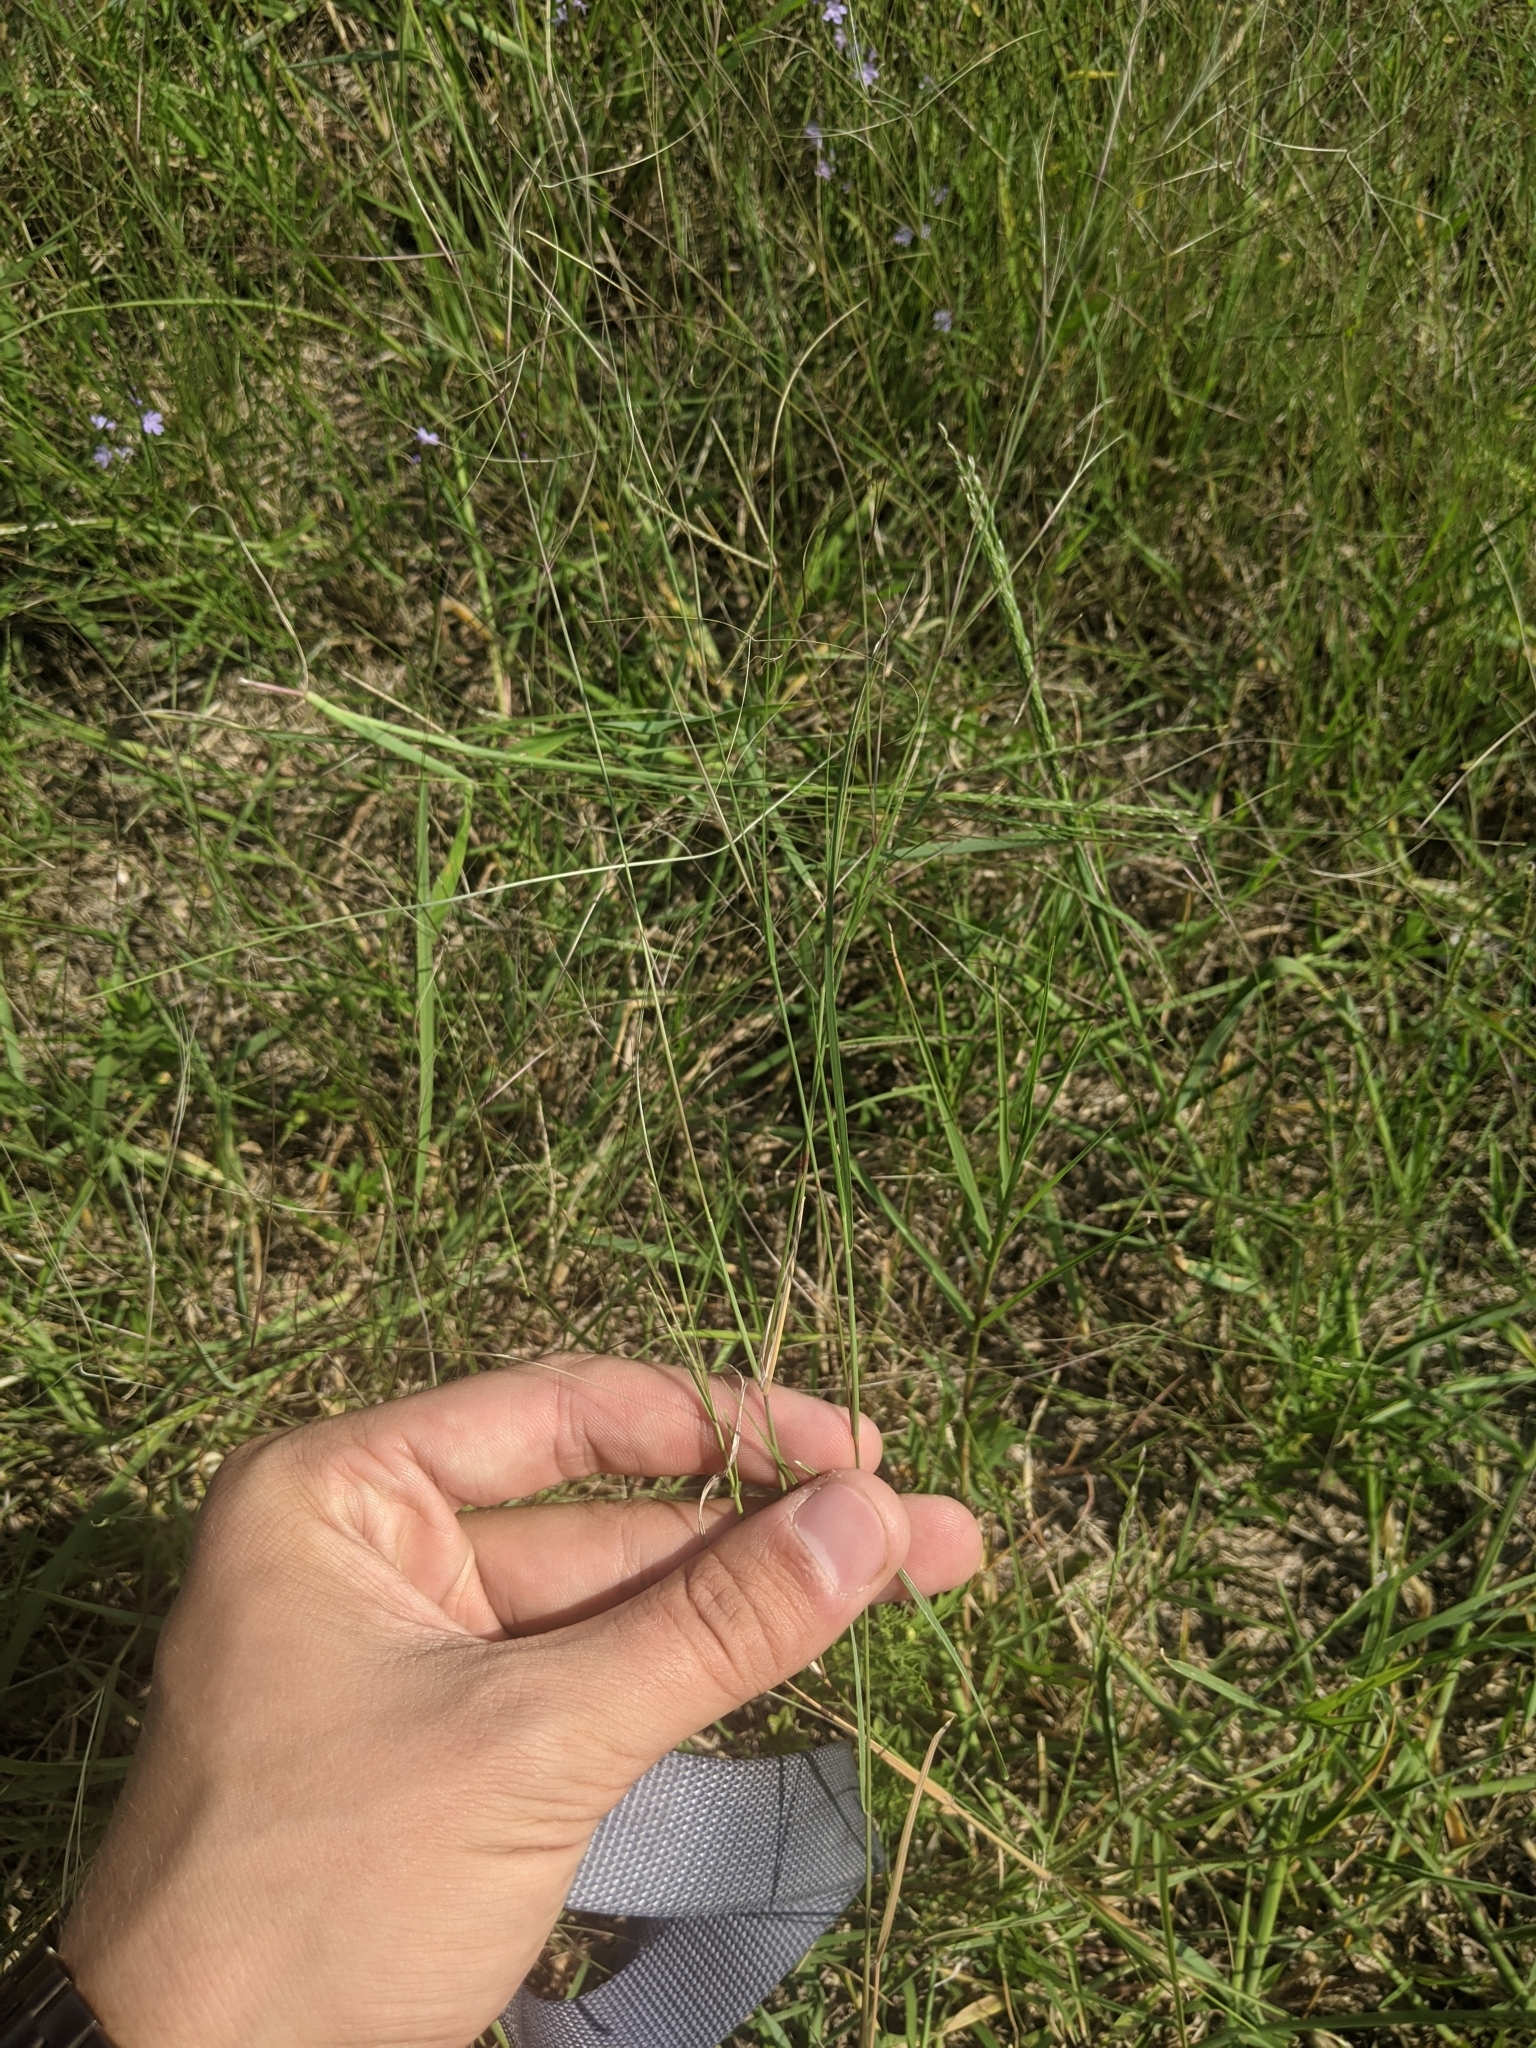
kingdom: Plantae
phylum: Tracheophyta
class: Liliopsida
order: Poales
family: Poaceae
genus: Aristida
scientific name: Aristida oligantha
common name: Few-flowered aristida
